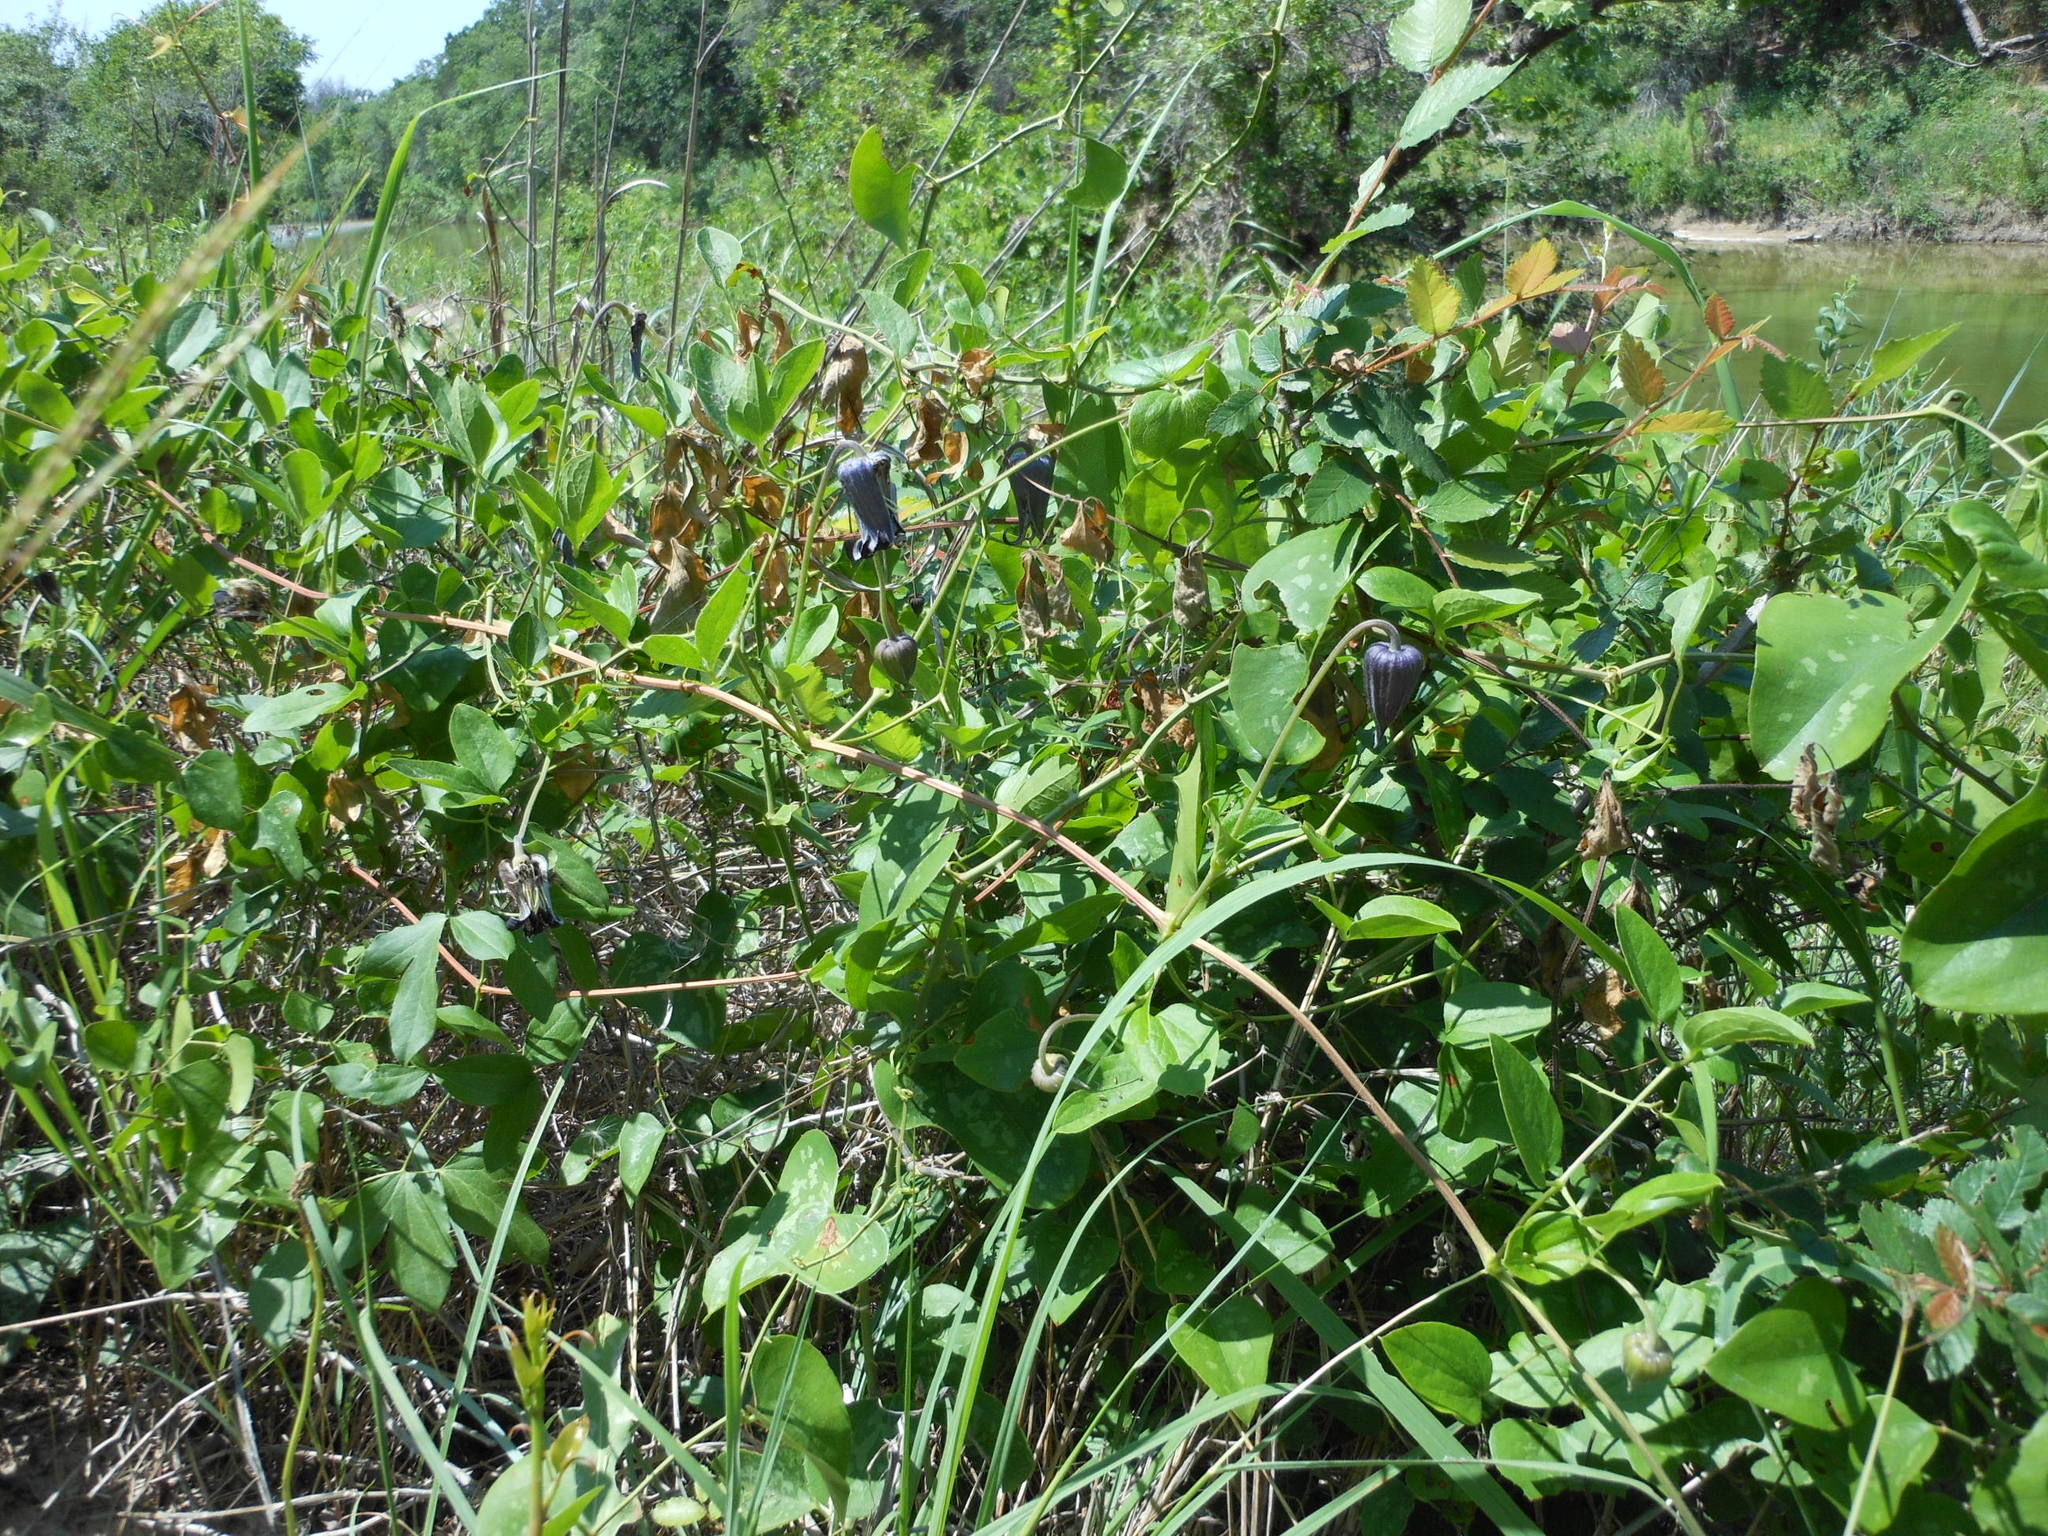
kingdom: Plantae
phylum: Tracheophyta
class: Magnoliopsida
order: Ranunculales
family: Ranunculaceae
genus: Clematis
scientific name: Clematis pitcheri
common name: Bellflower clematis
